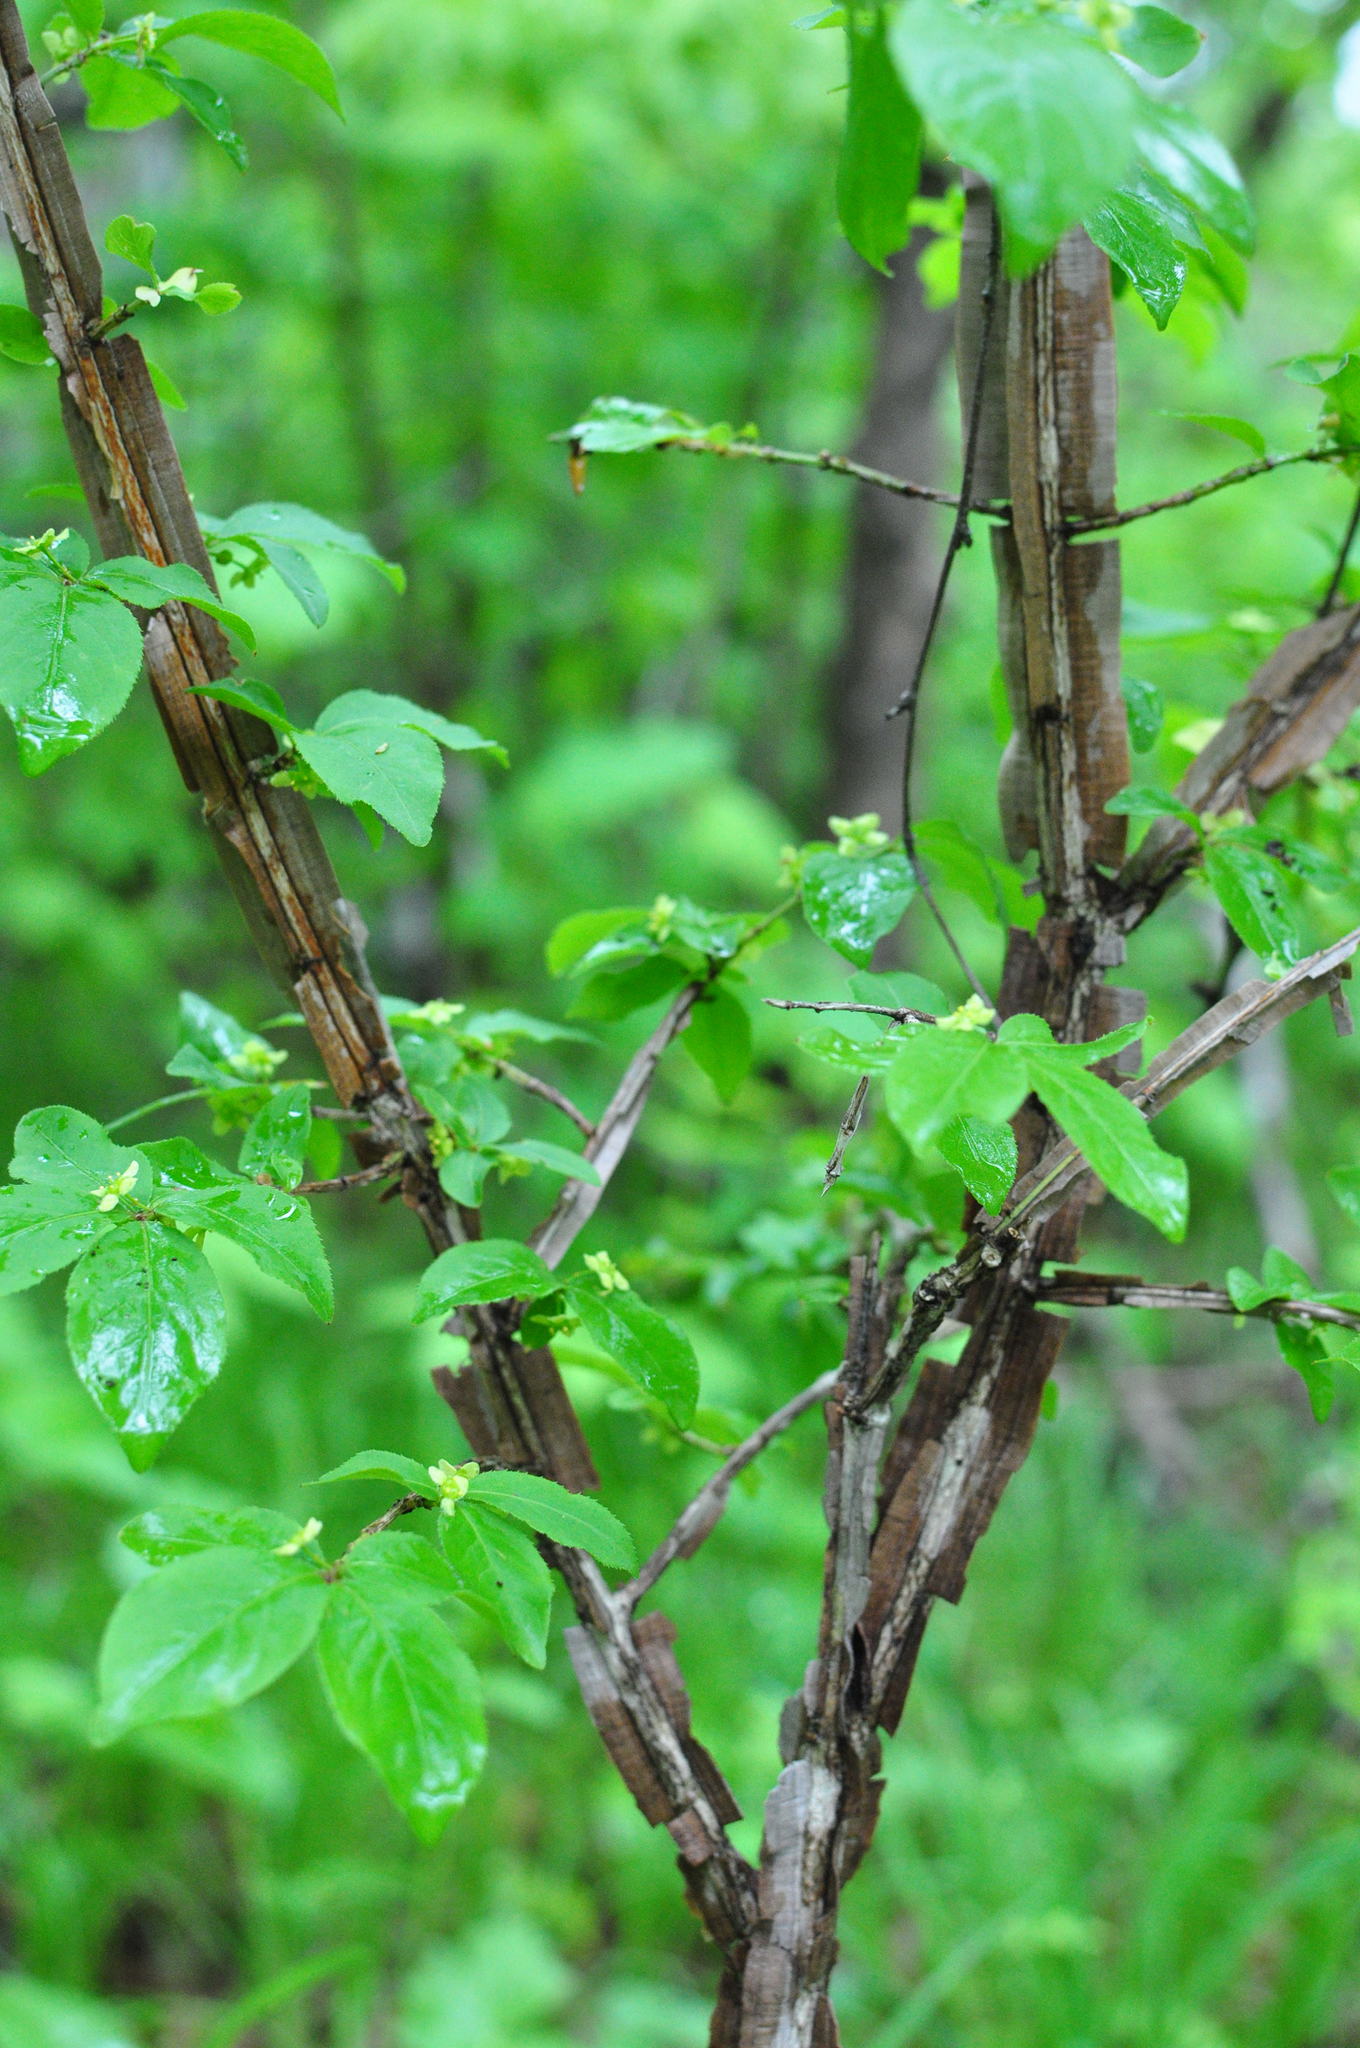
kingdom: Plantae
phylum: Tracheophyta
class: Magnoliopsida
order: Celastrales
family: Celastraceae
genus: Euonymus
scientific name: Euonymus alatus
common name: Winged euonymus
